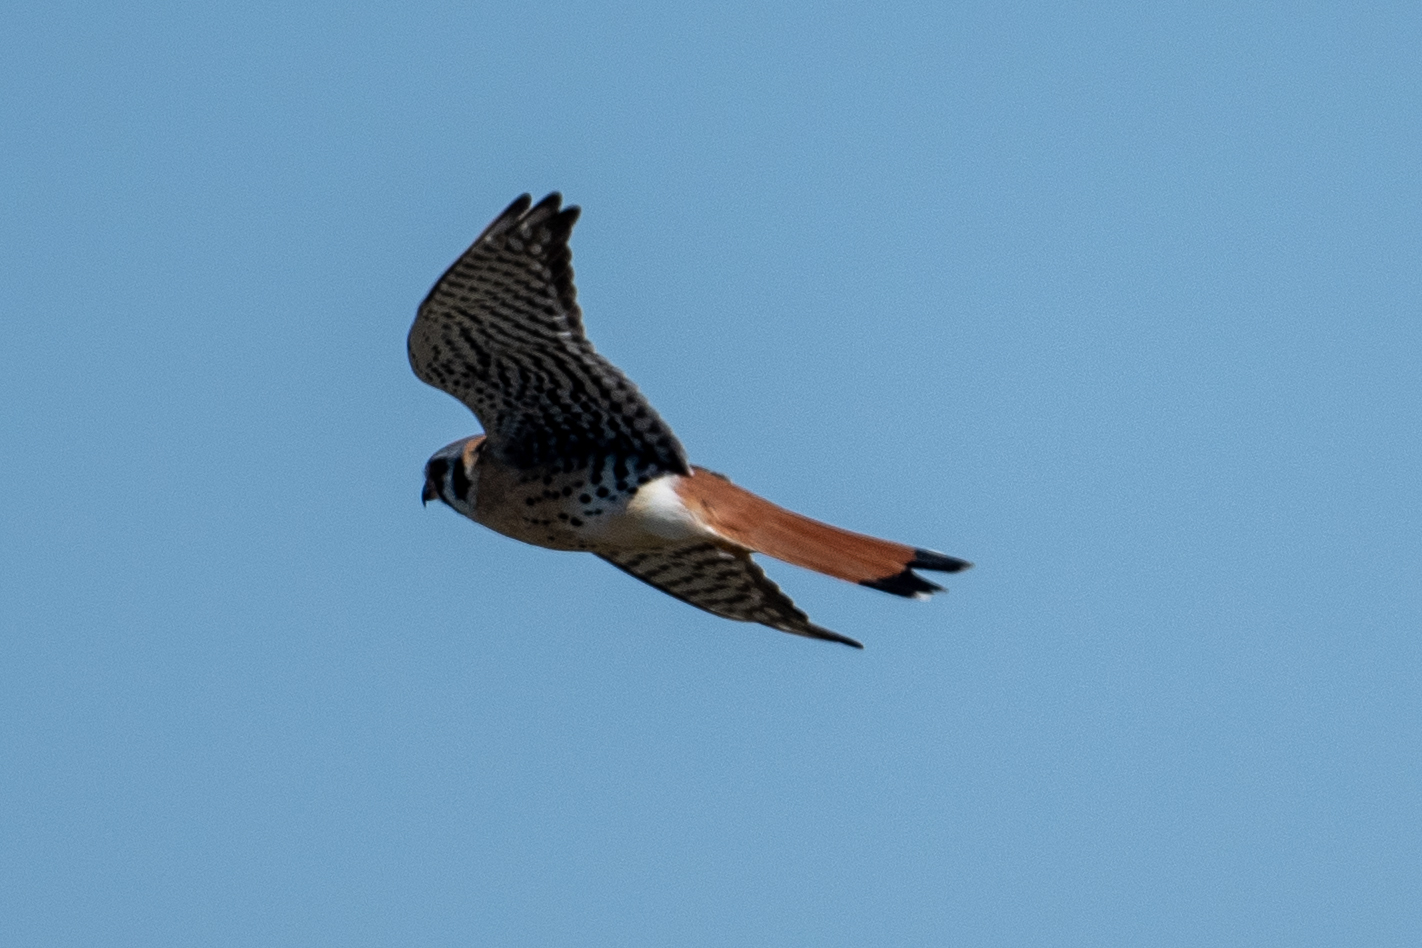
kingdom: Animalia
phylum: Chordata
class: Aves
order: Falconiformes
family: Falconidae
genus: Falco
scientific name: Falco sparverius
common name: American kestrel
